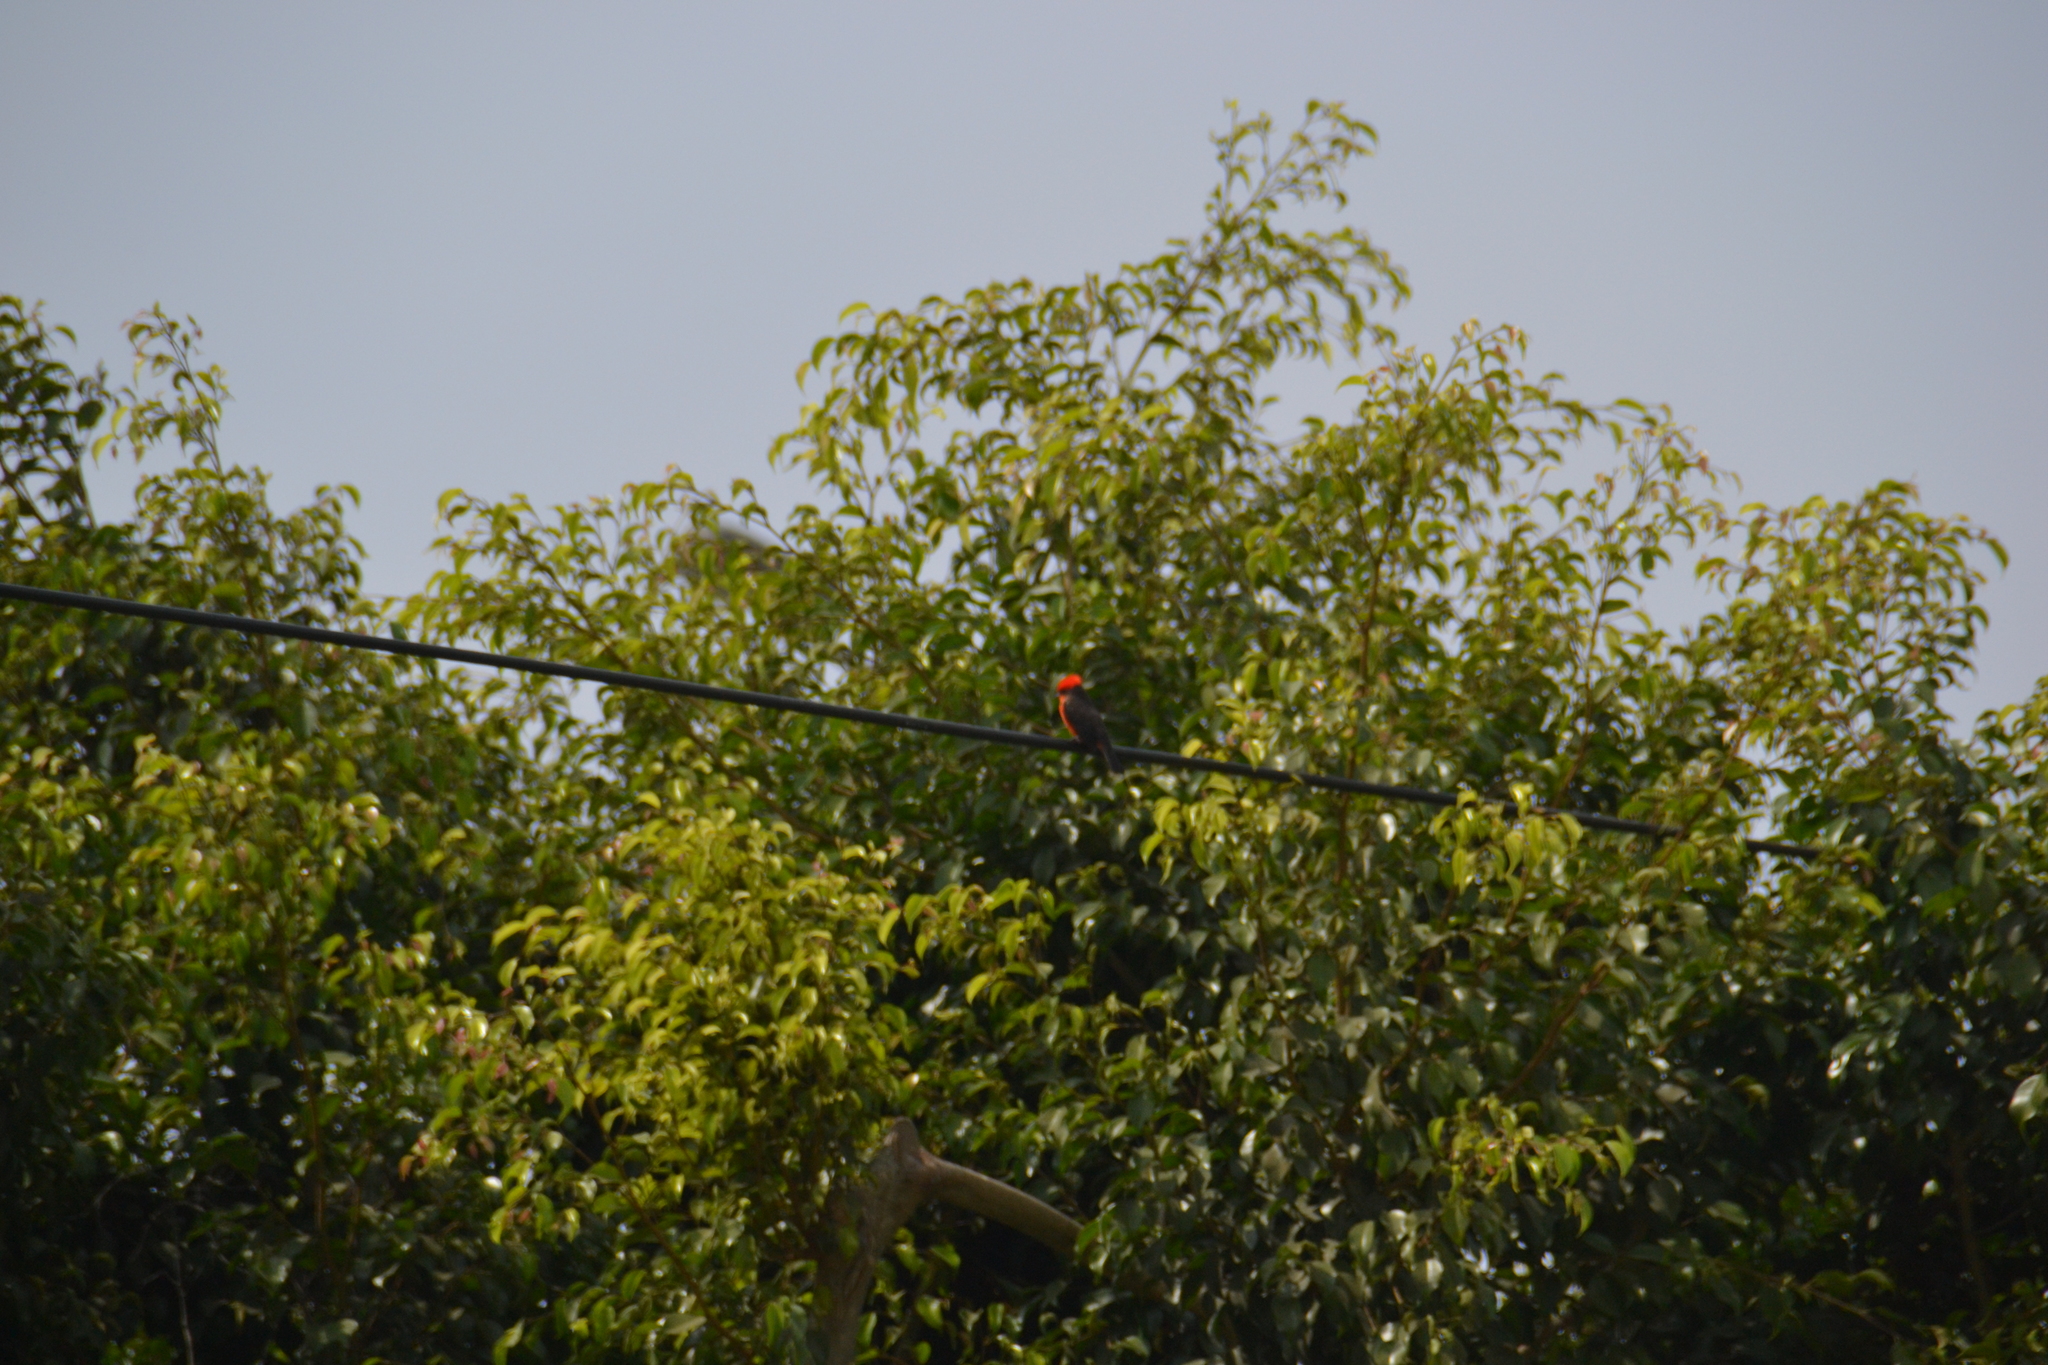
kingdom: Animalia
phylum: Chordata
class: Aves
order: Passeriformes
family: Tyrannidae
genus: Pyrocephalus
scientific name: Pyrocephalus rubinus
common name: Vermilion flycatcher
